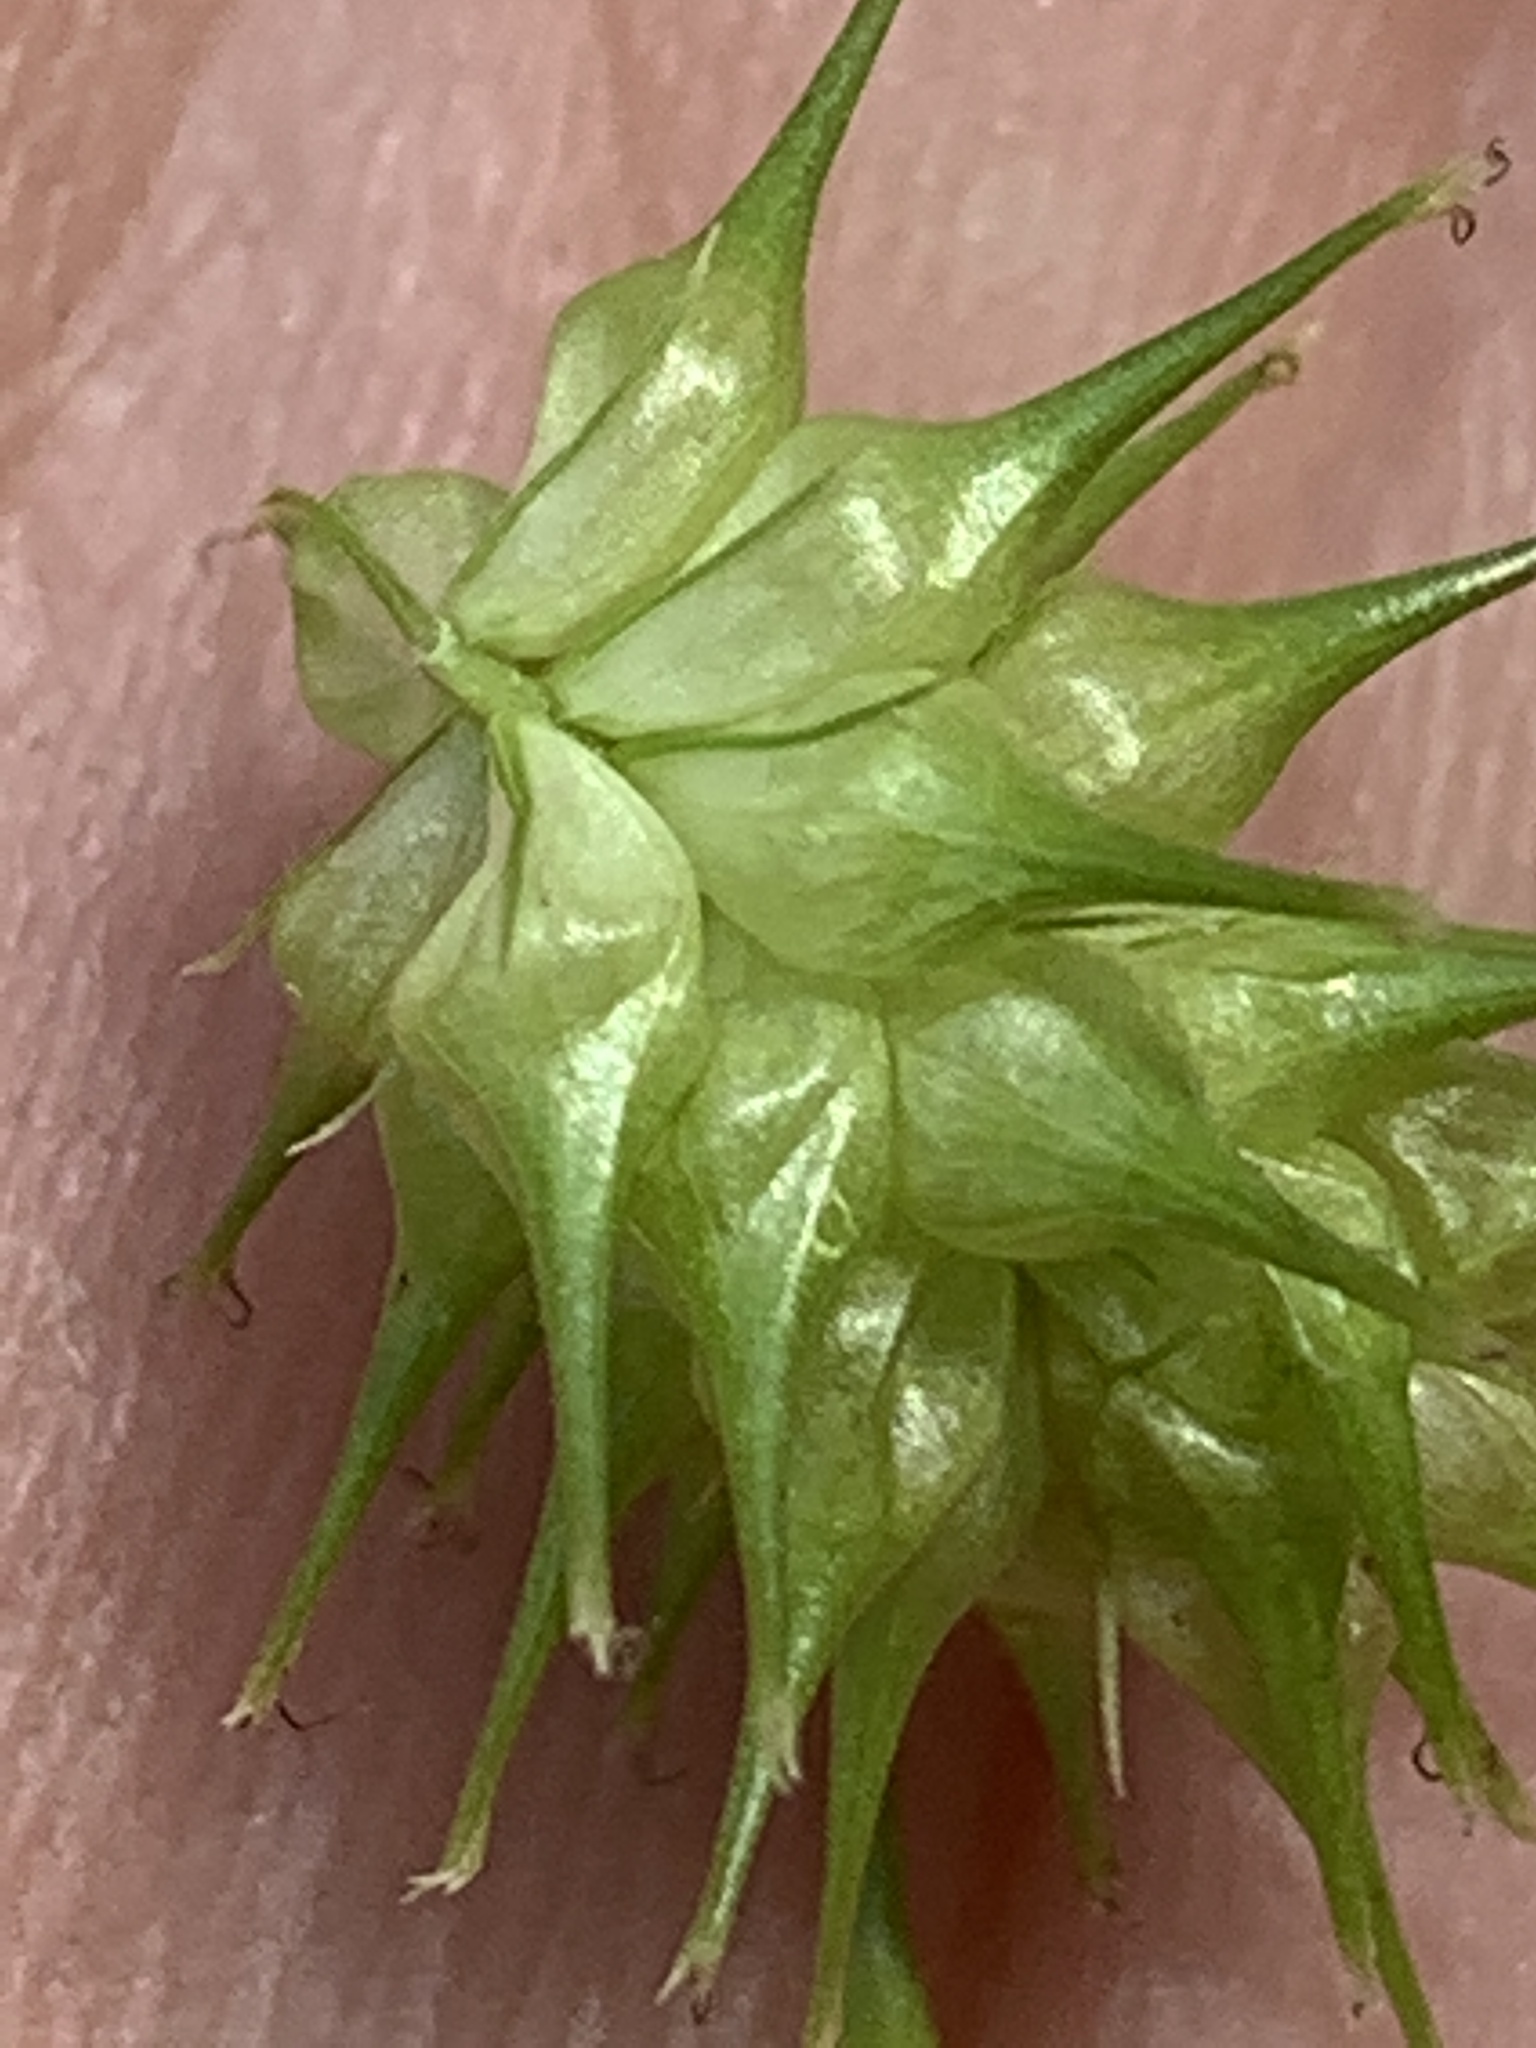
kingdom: Plantae
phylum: Tracheophyta
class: Liliopsida
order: Poales
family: Cyperaceae
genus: Carex
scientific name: Carex lurida
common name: Sallow sedge
